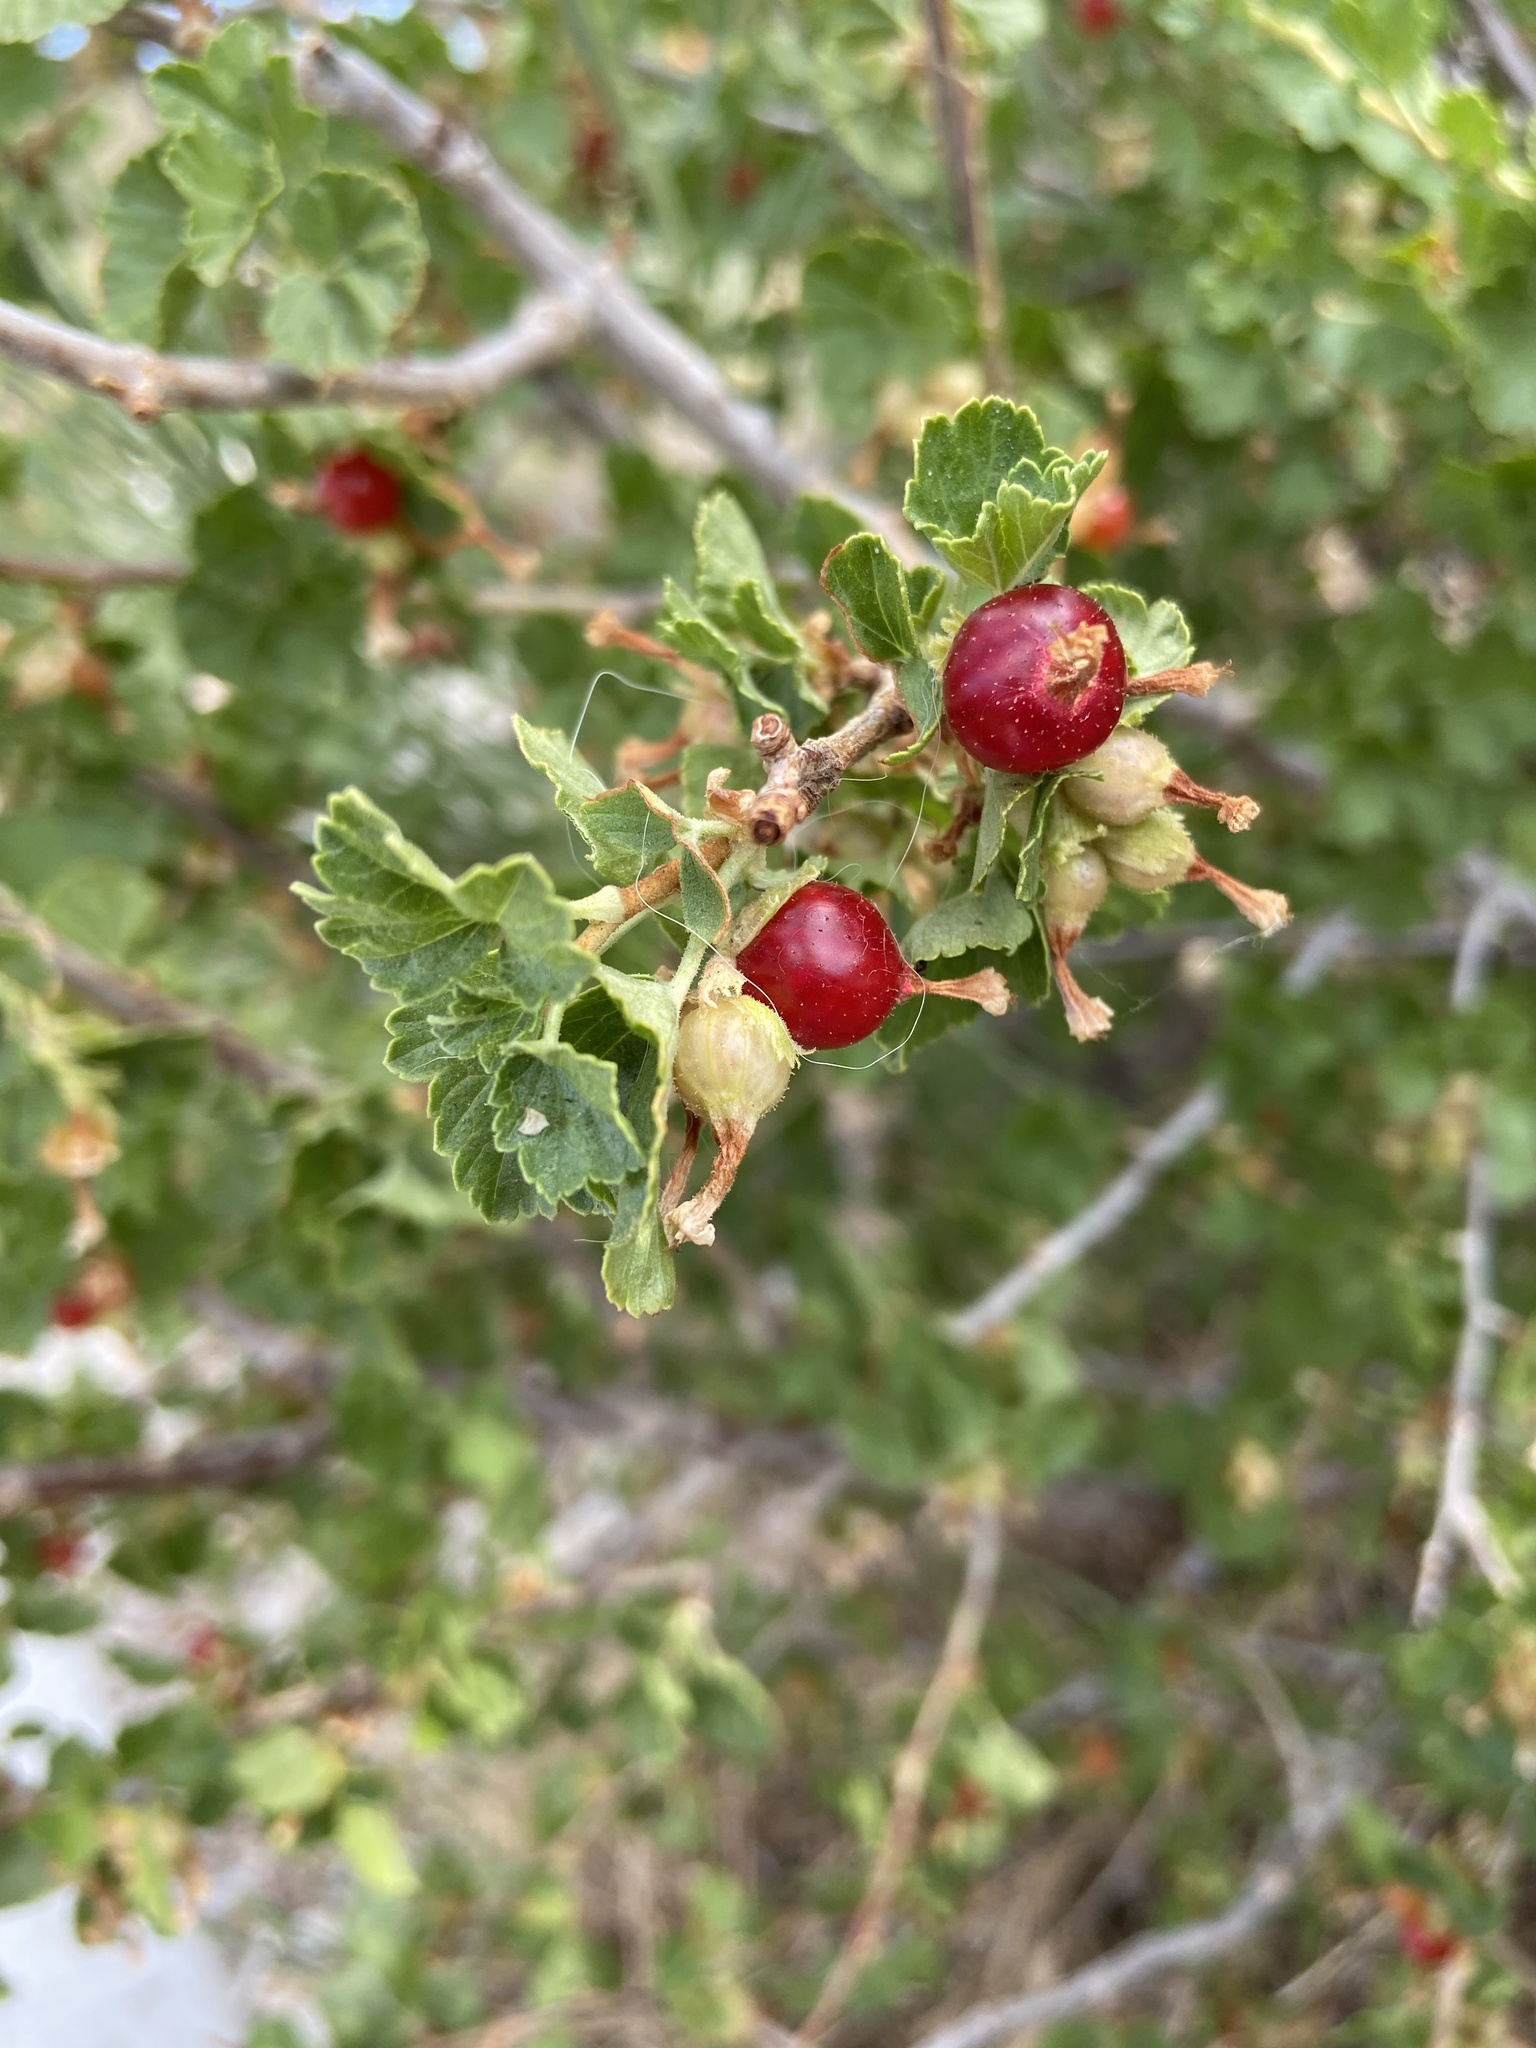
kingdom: Plantae
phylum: Tracheophyta
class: Magnoliopsida
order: Saxifragales
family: Grossulariaceae
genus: Ribes
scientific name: Ribes cereum
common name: Wax currant
